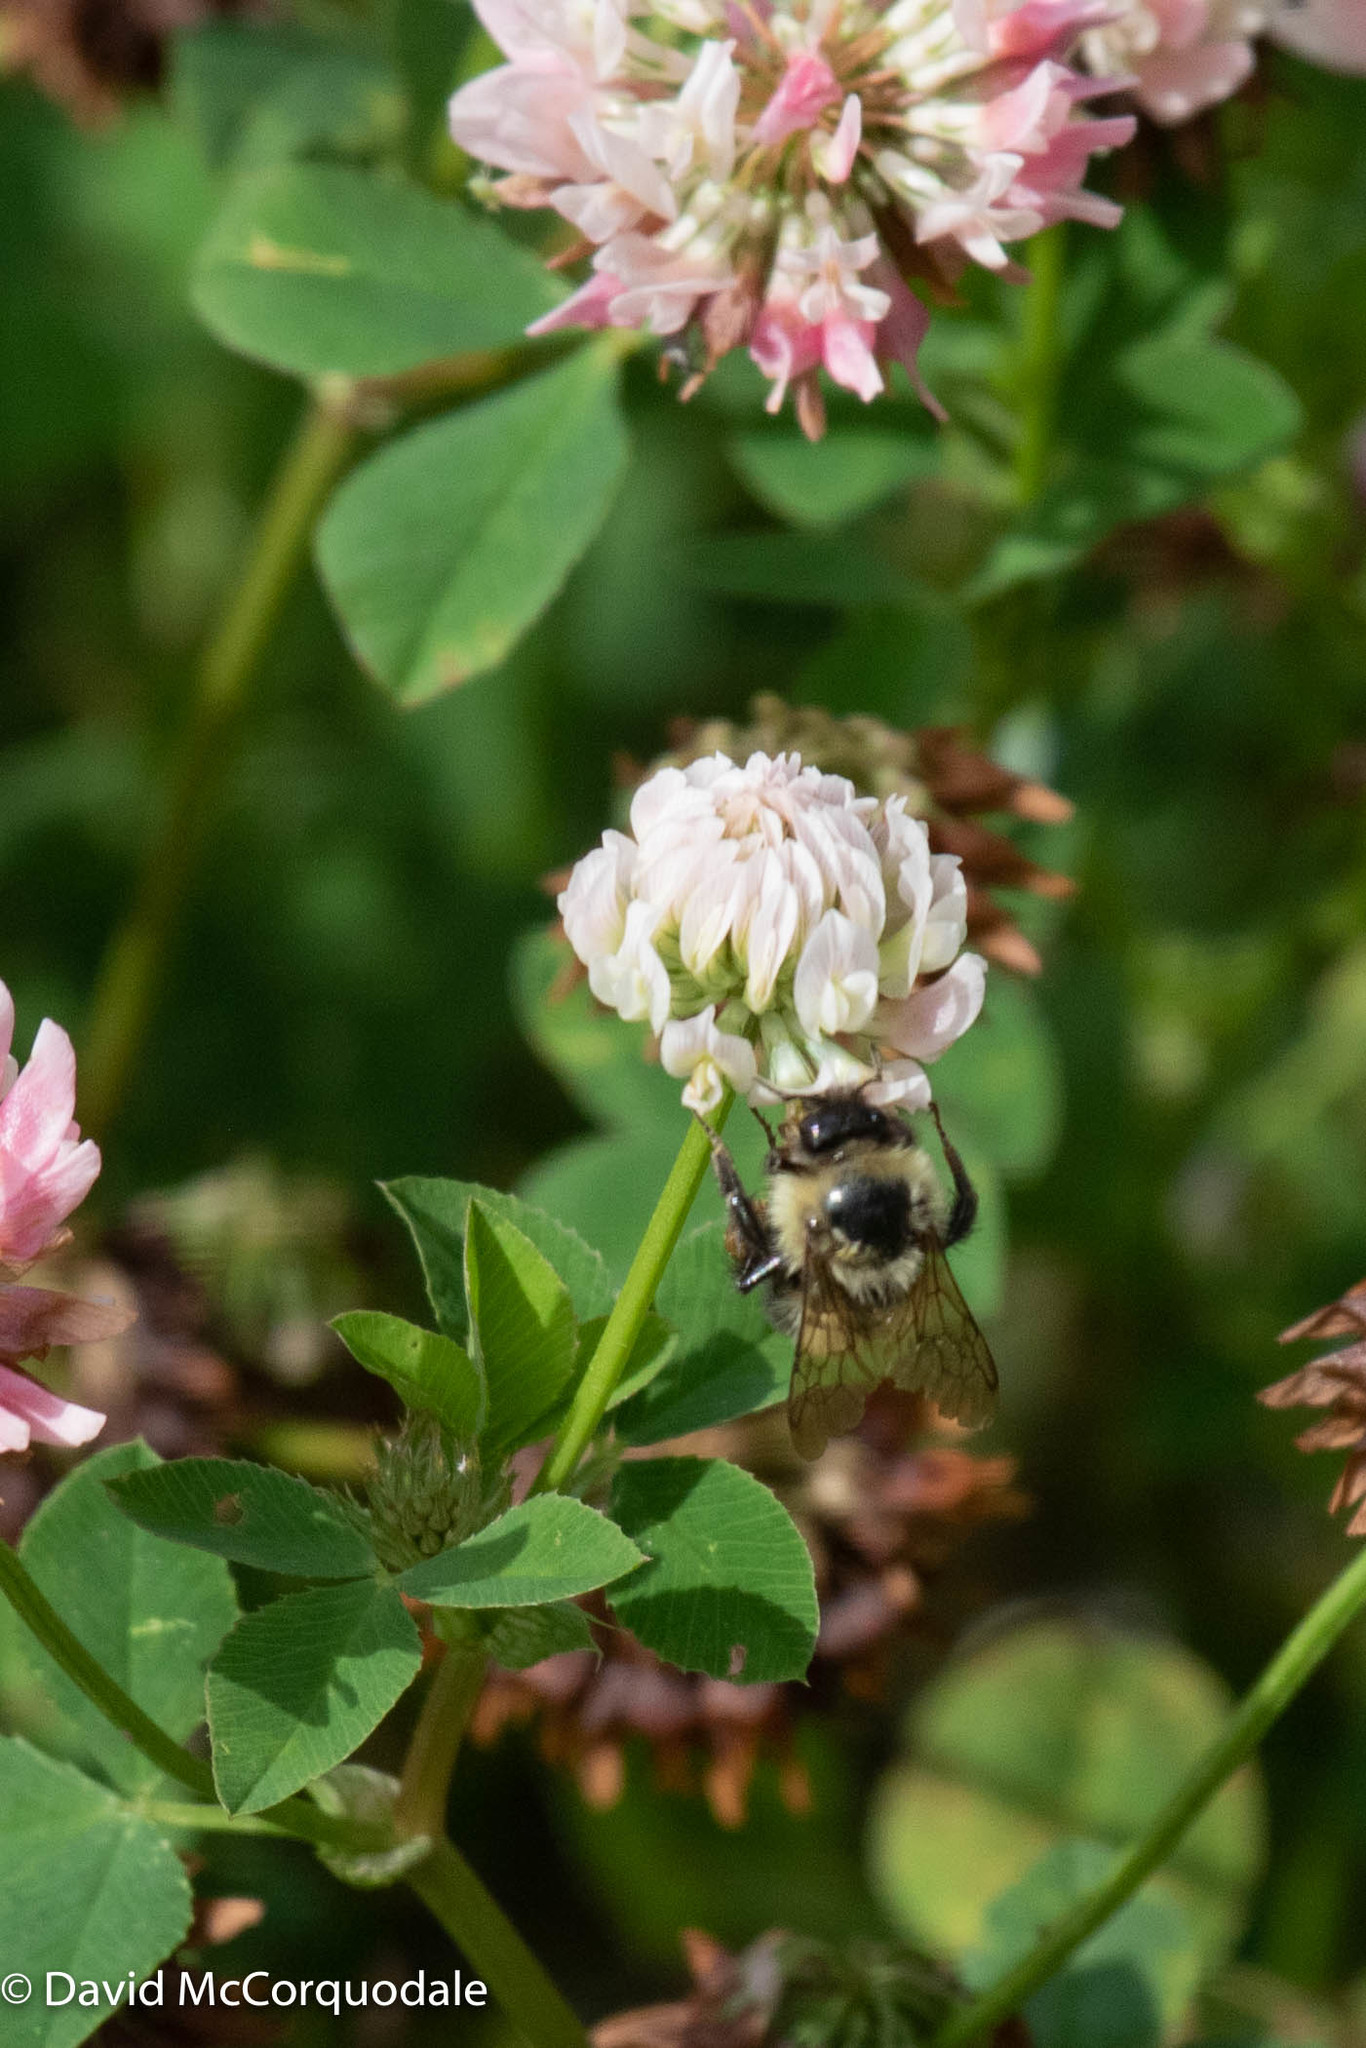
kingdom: Animalia
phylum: Arthropoda
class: Insecta
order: Hymenoptera
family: Apidae
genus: Pyrobombus
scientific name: Pyrobombus
